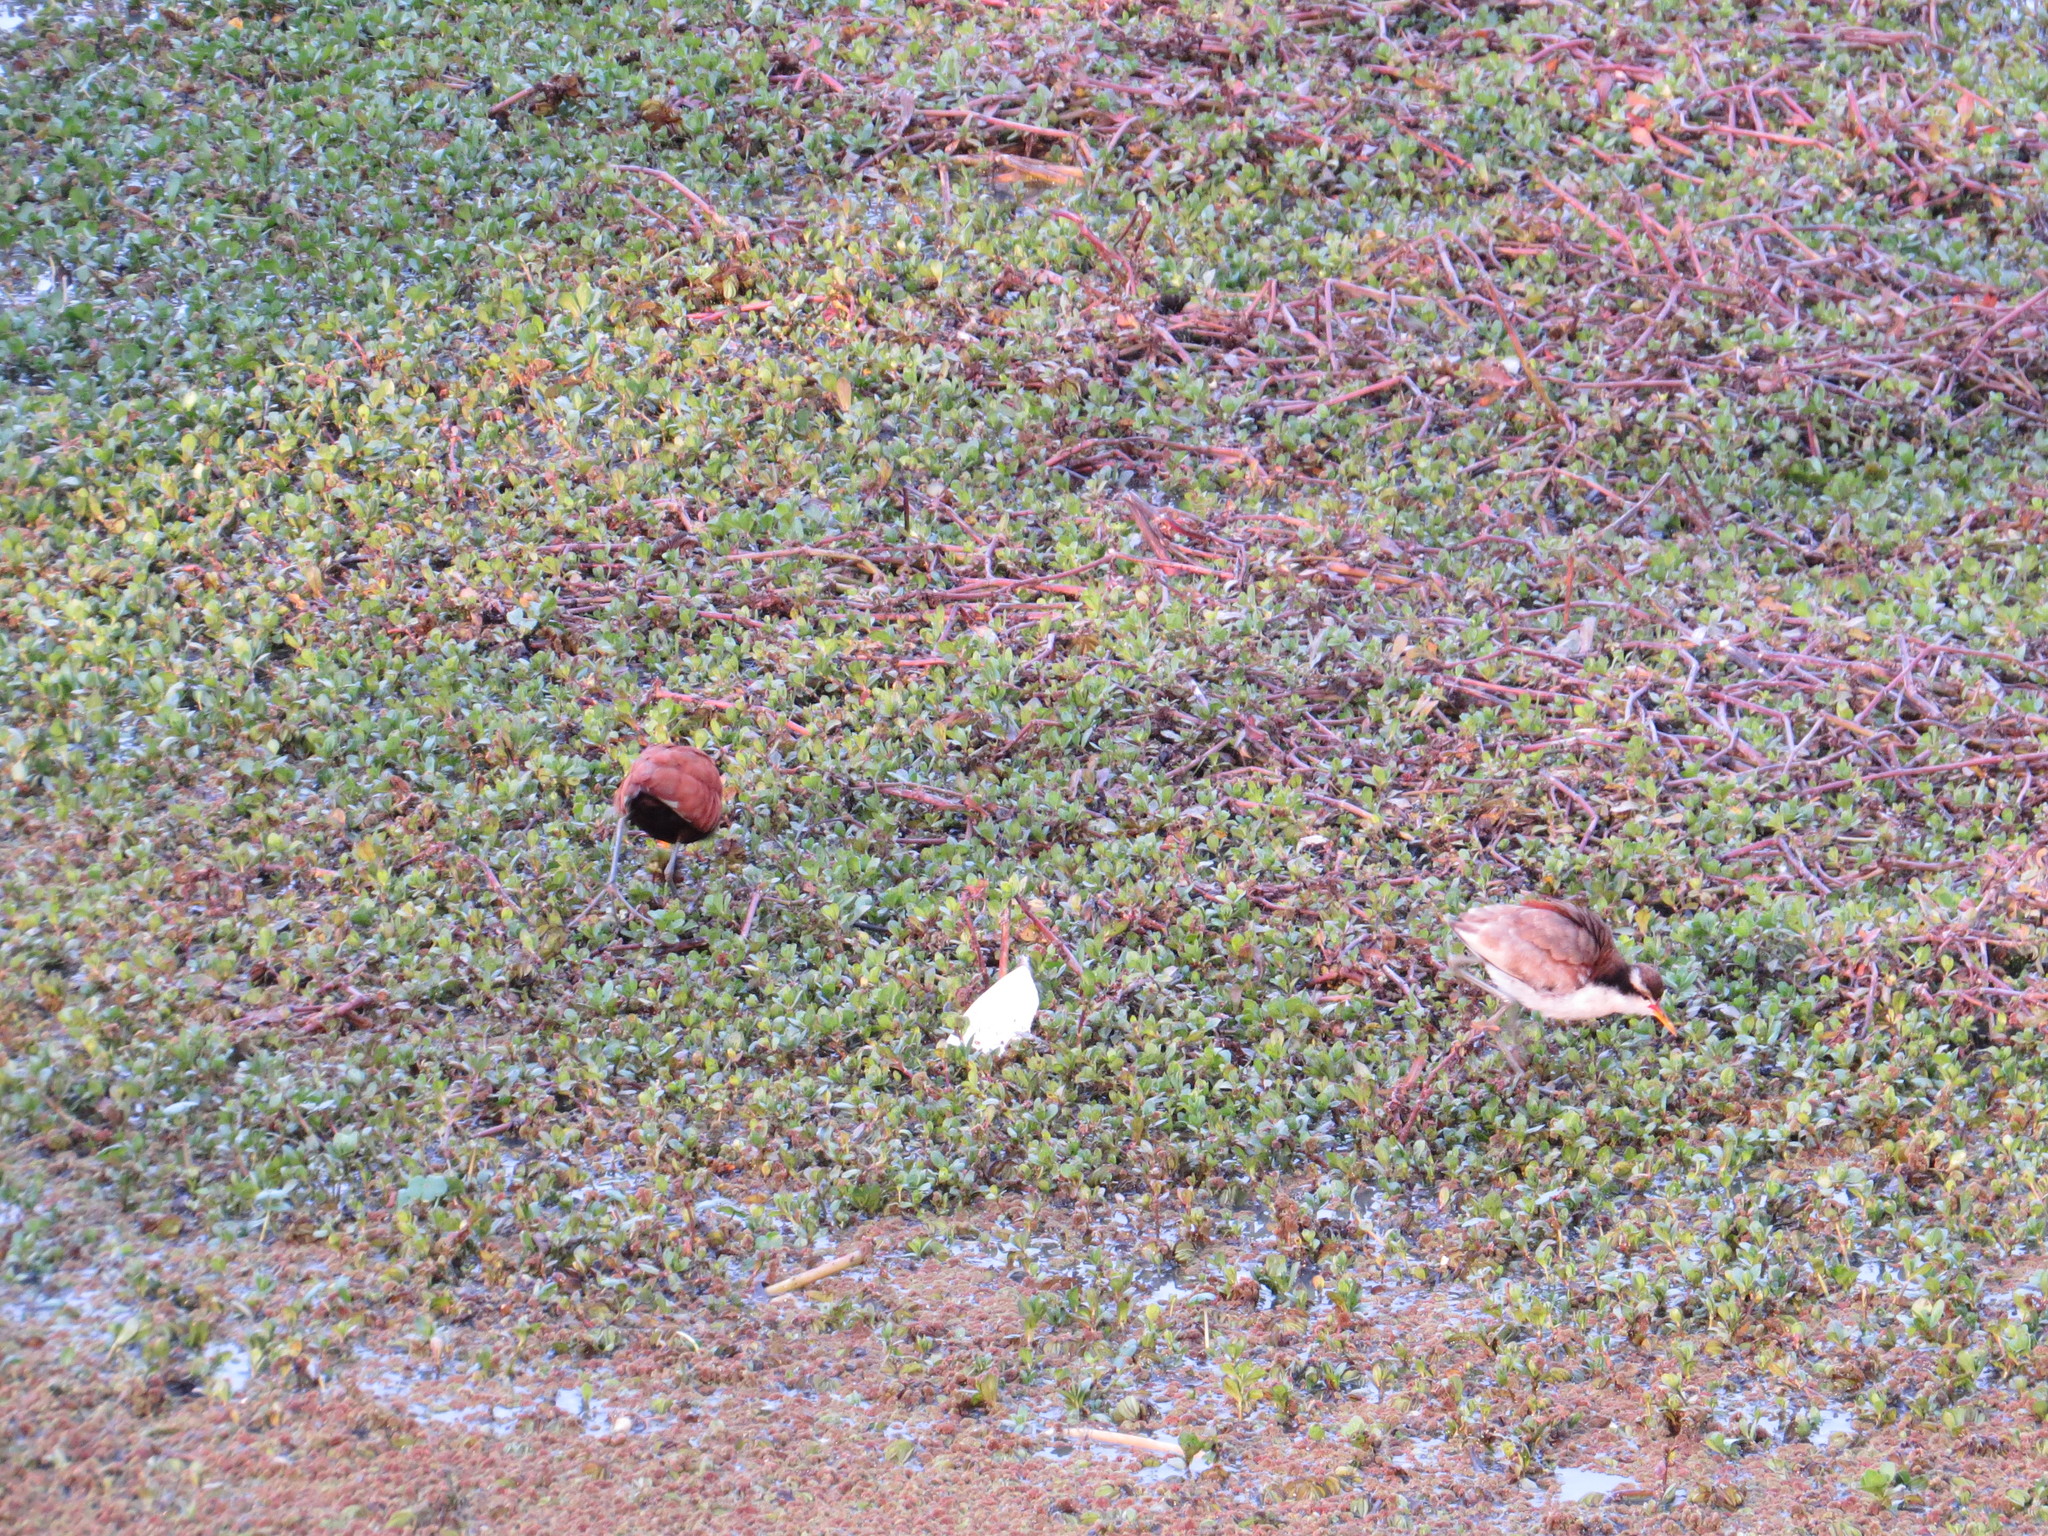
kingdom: Animalia
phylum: Chordata
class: Aves
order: Charadriiformes
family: Jacanidae
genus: Jacana
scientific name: Jacana jacana
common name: Wattled jacana
